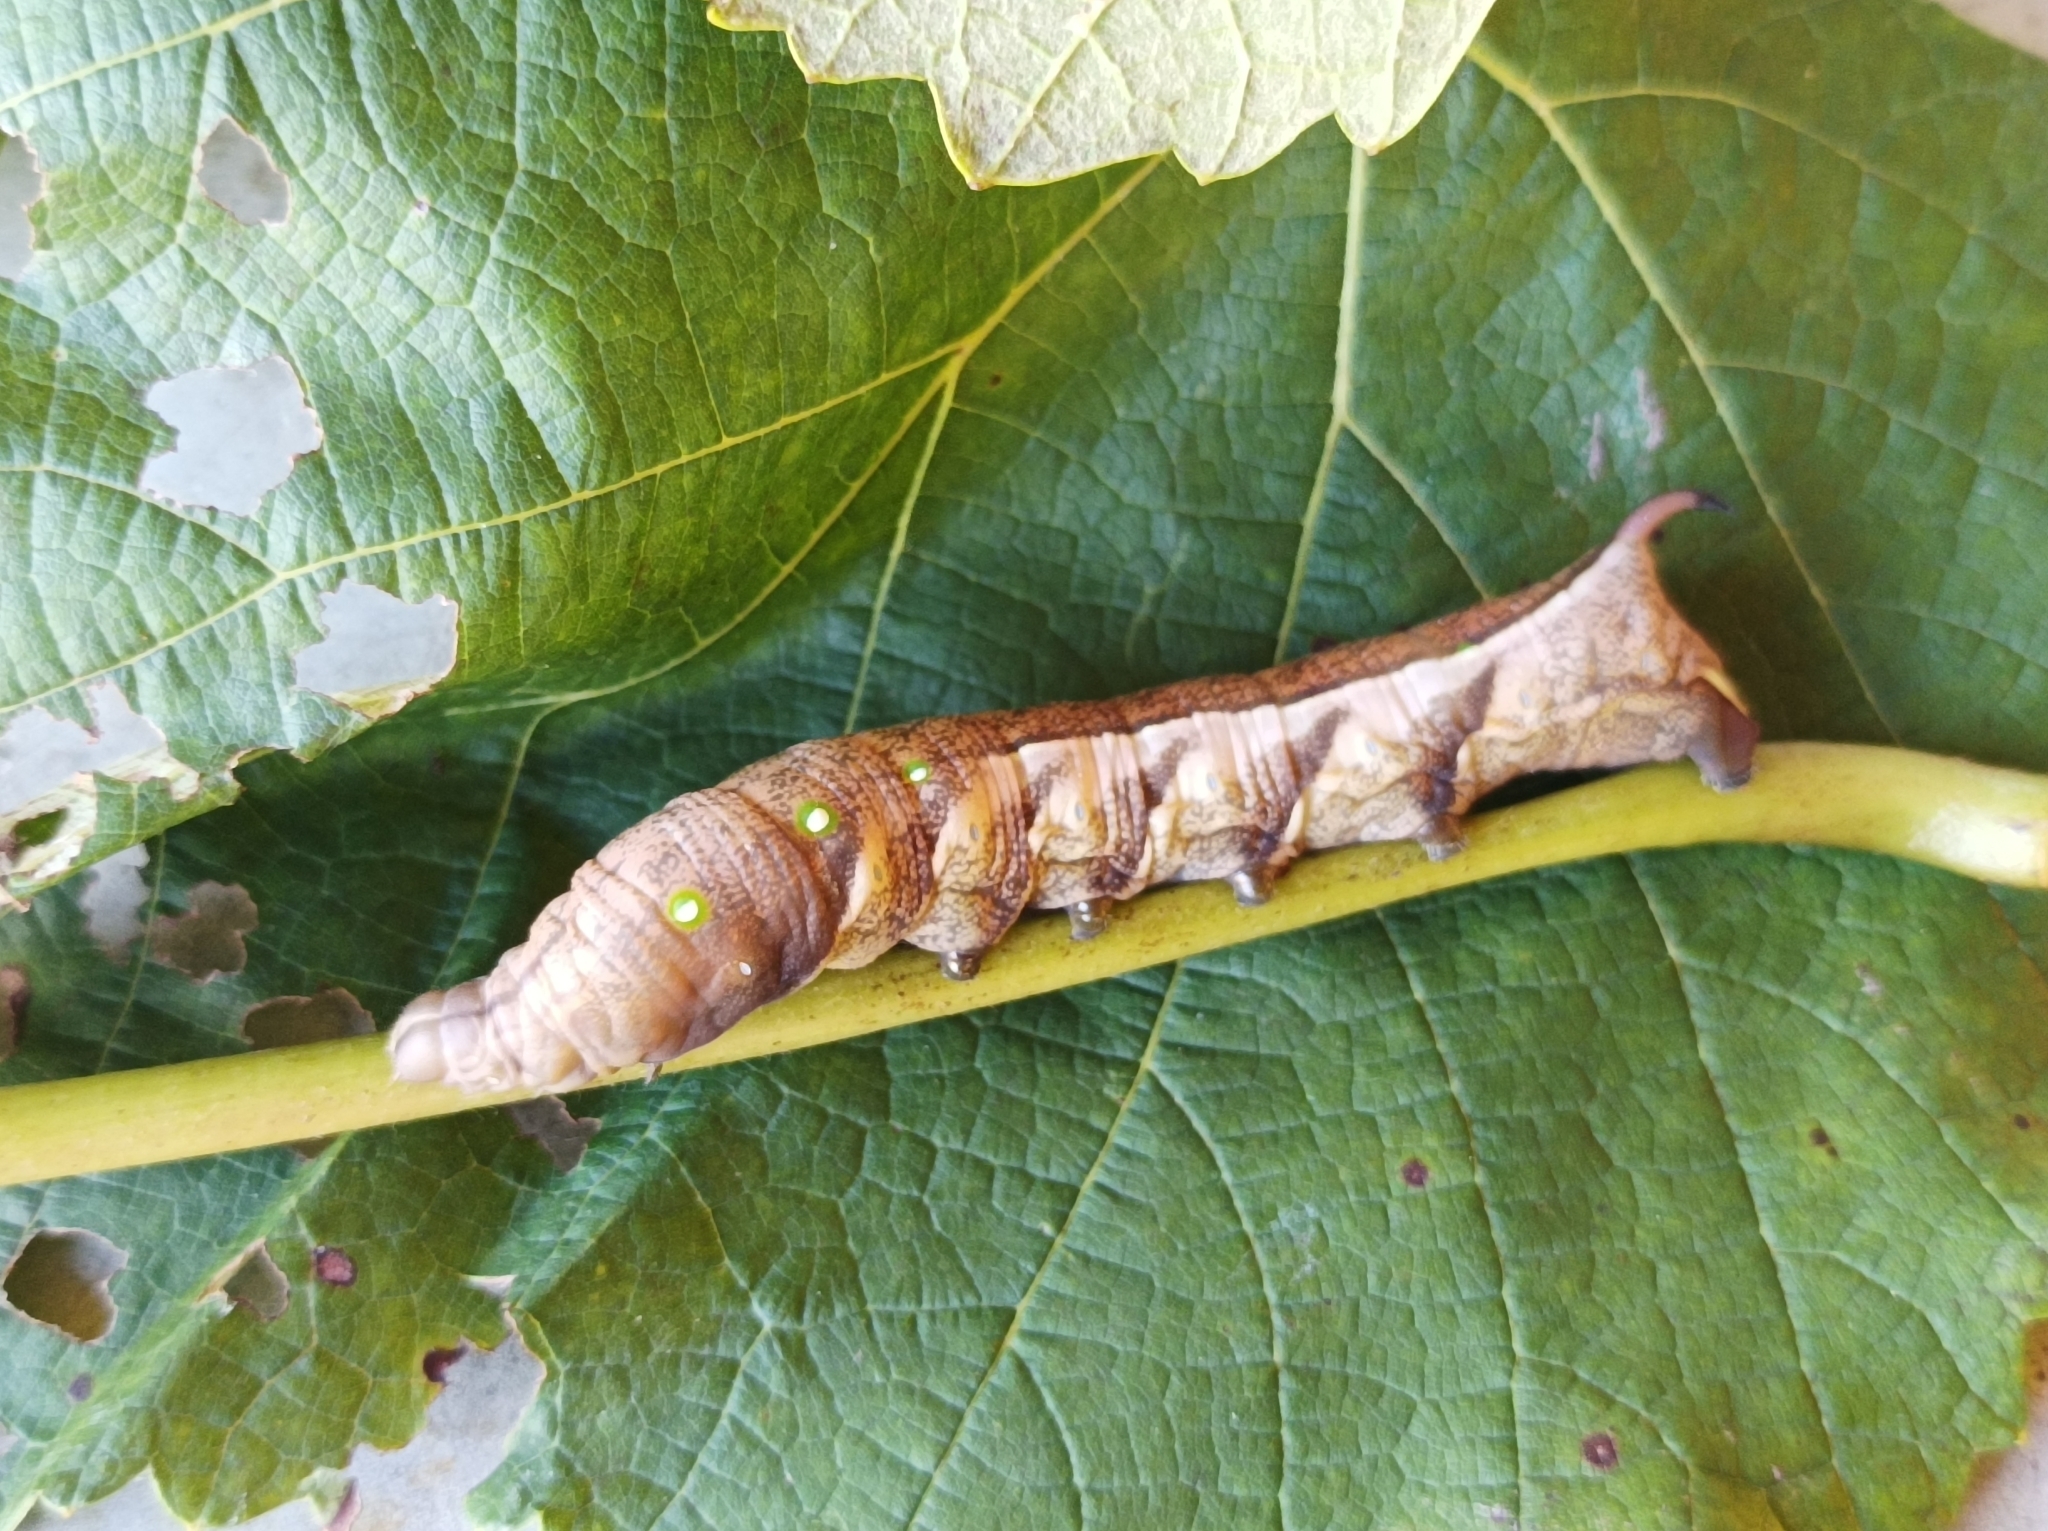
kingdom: Animalia
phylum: Arthropoda
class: Insecta
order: Lepidoptera
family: Sphingidae
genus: Gnathothlibus
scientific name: Gnathothlibus eras
